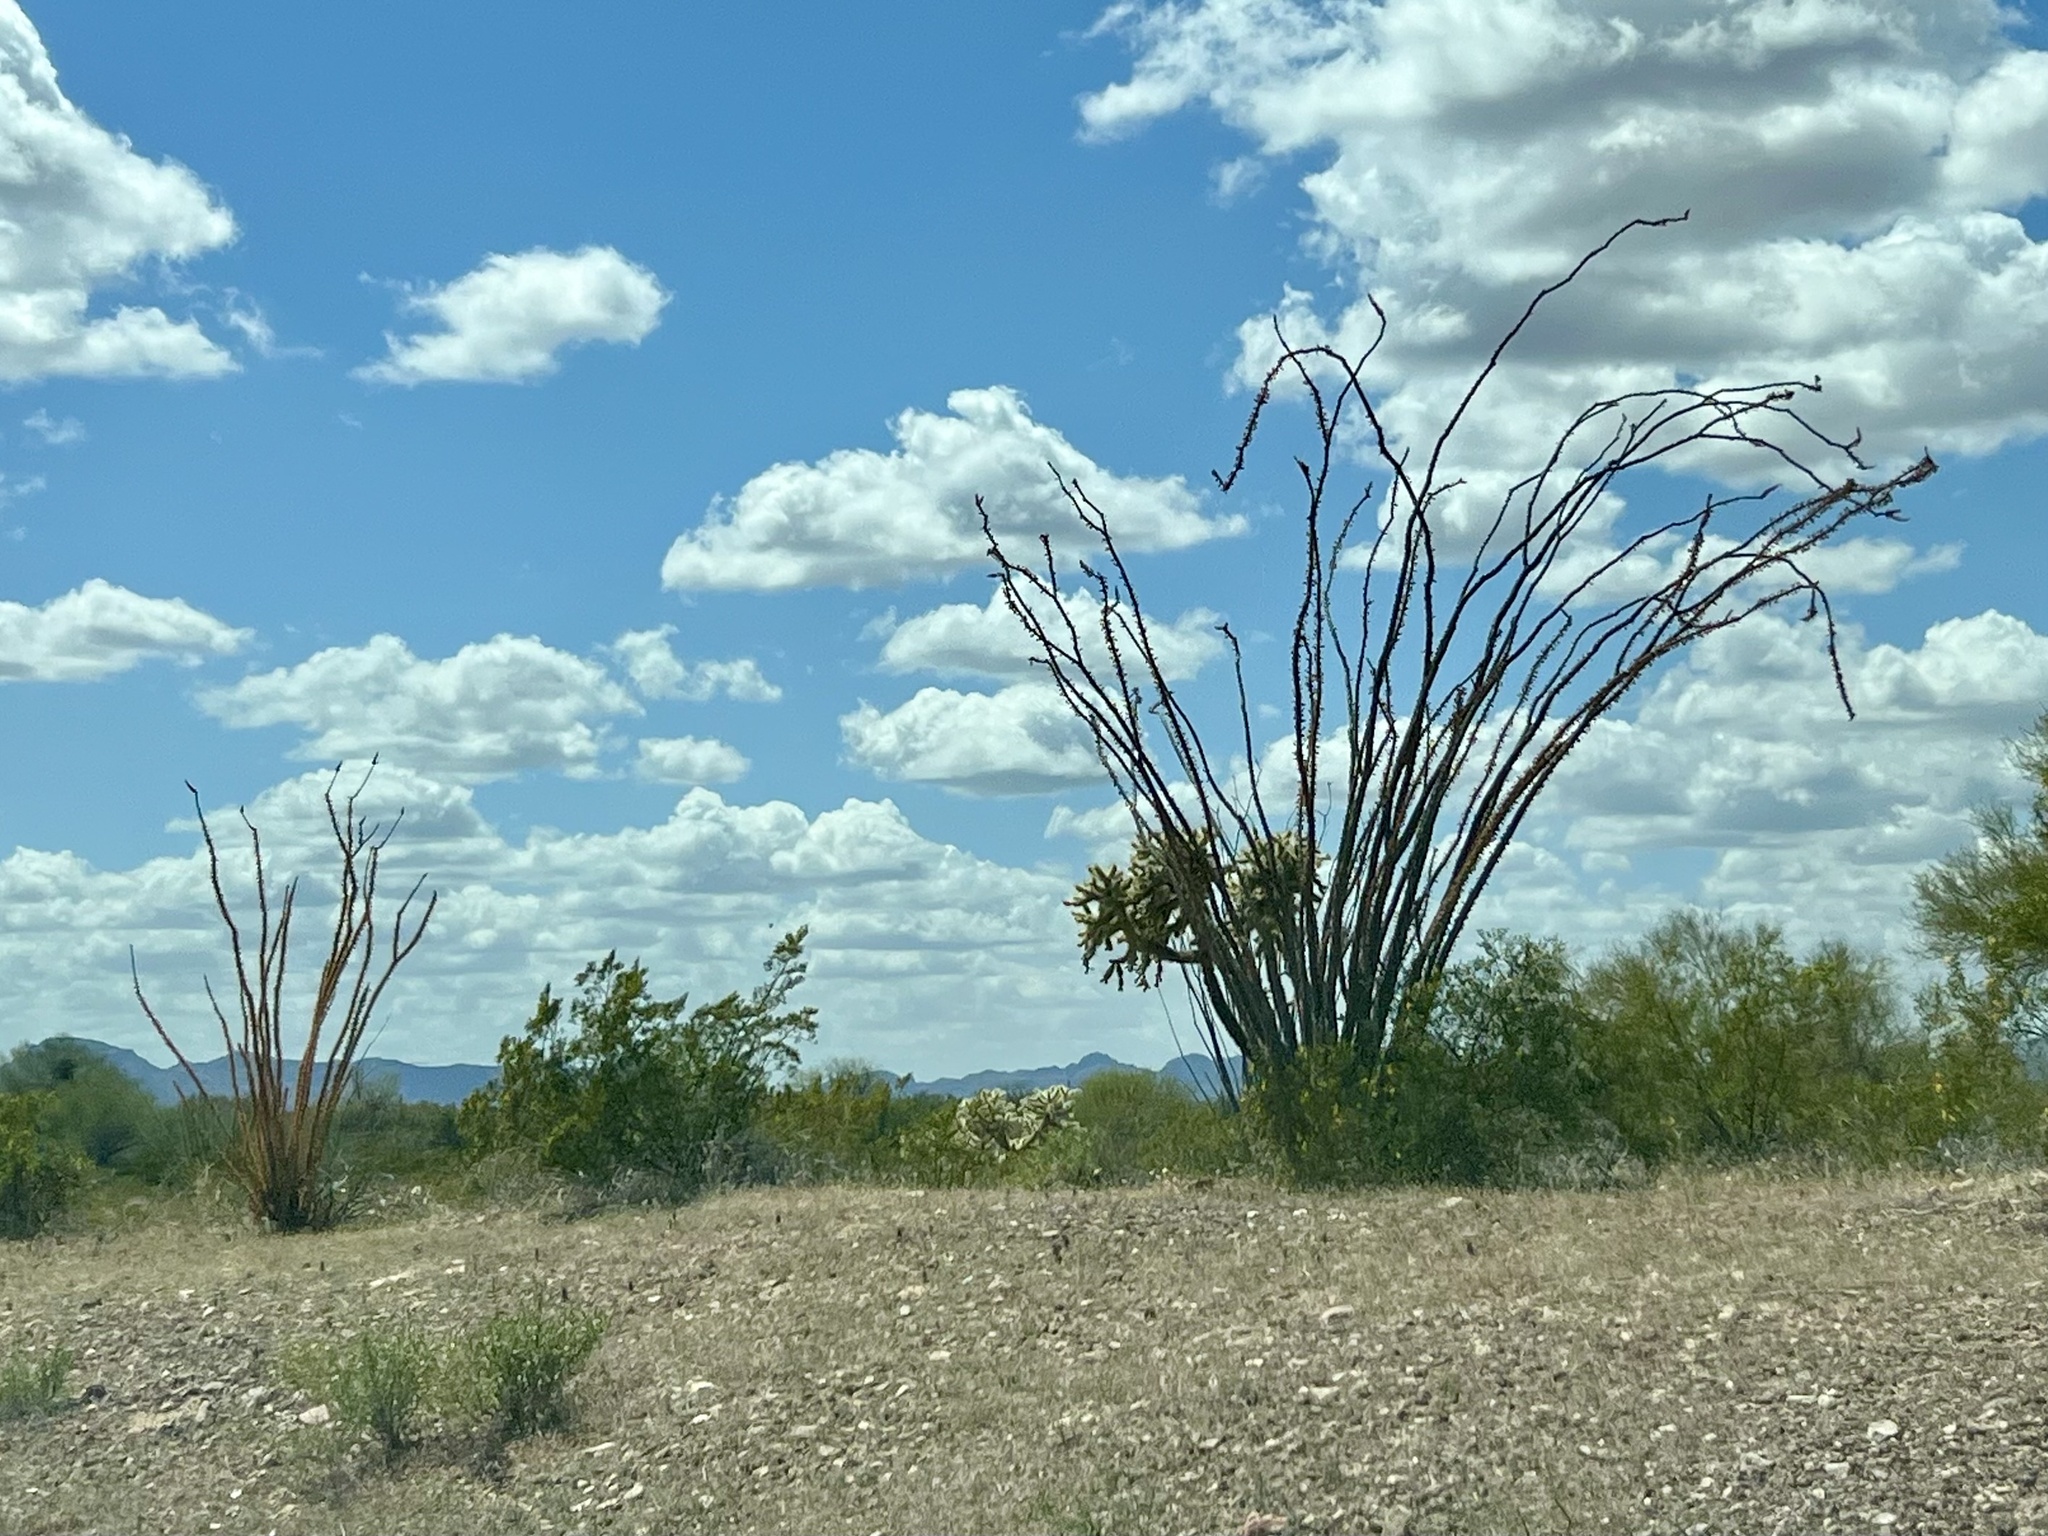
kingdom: Plantae
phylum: Tracheophyta
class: Magnoliopsida
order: Ericales
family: Fouquieriaceae
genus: Fouquieria
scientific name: Fouquieria splendens
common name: Vine-cactus
